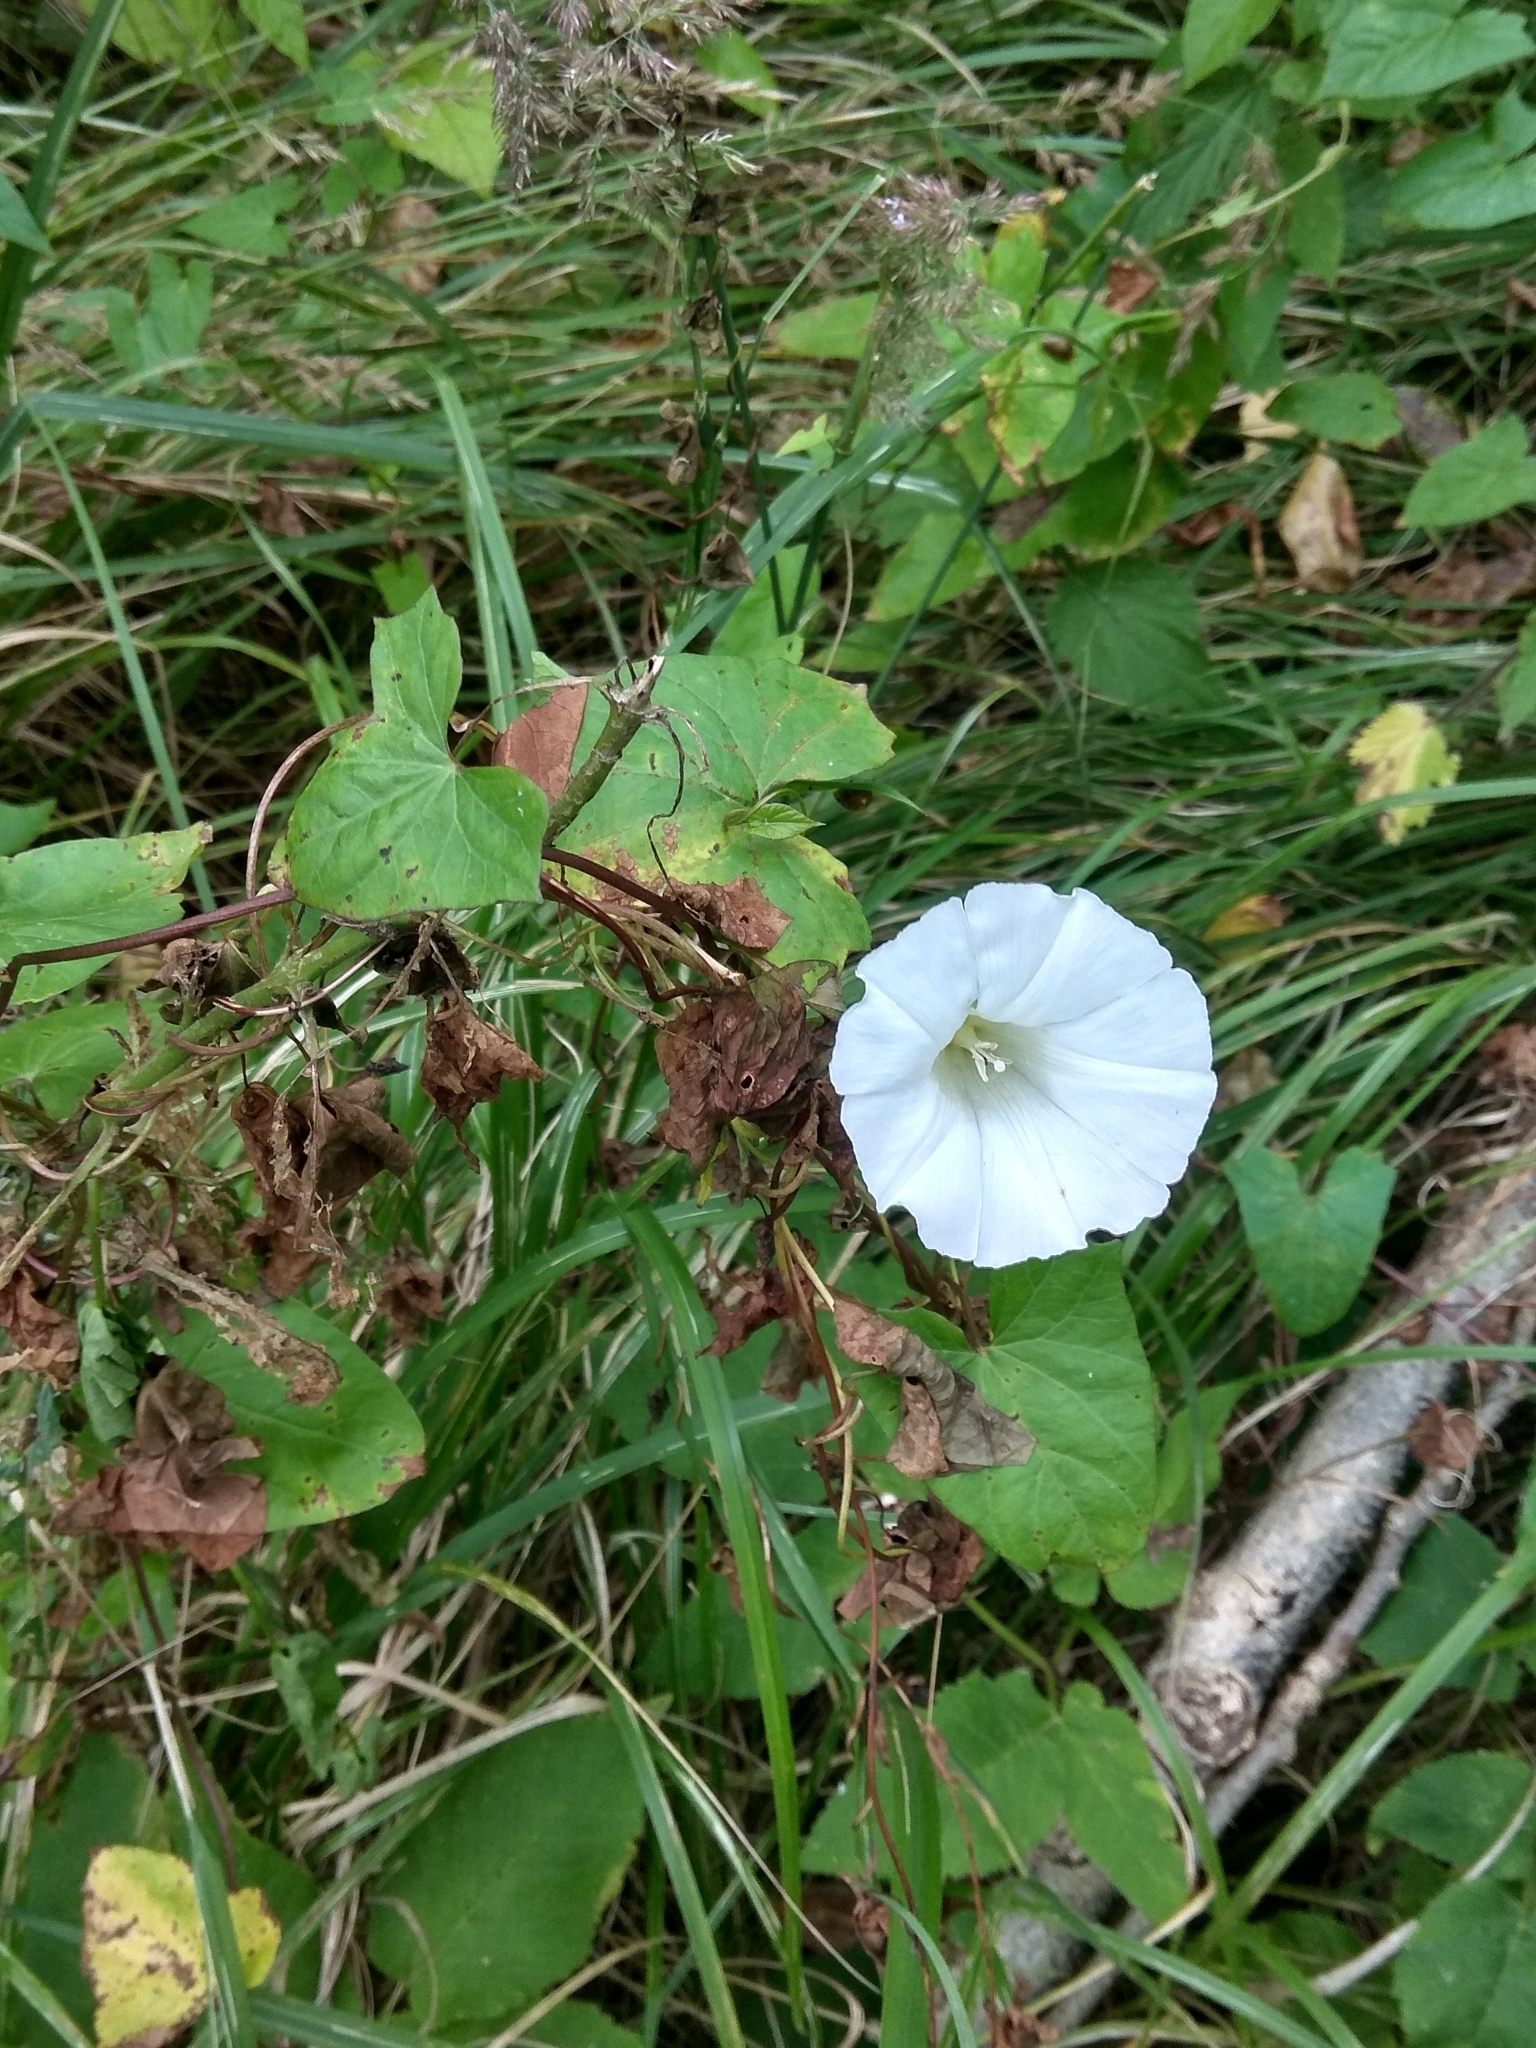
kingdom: Plantae
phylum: Tracheophyta
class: Magnoliopsida
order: Solanales
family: Convolvulaceae
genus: Calystegia
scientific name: Calystegia sepium
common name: Hedge bindweed
